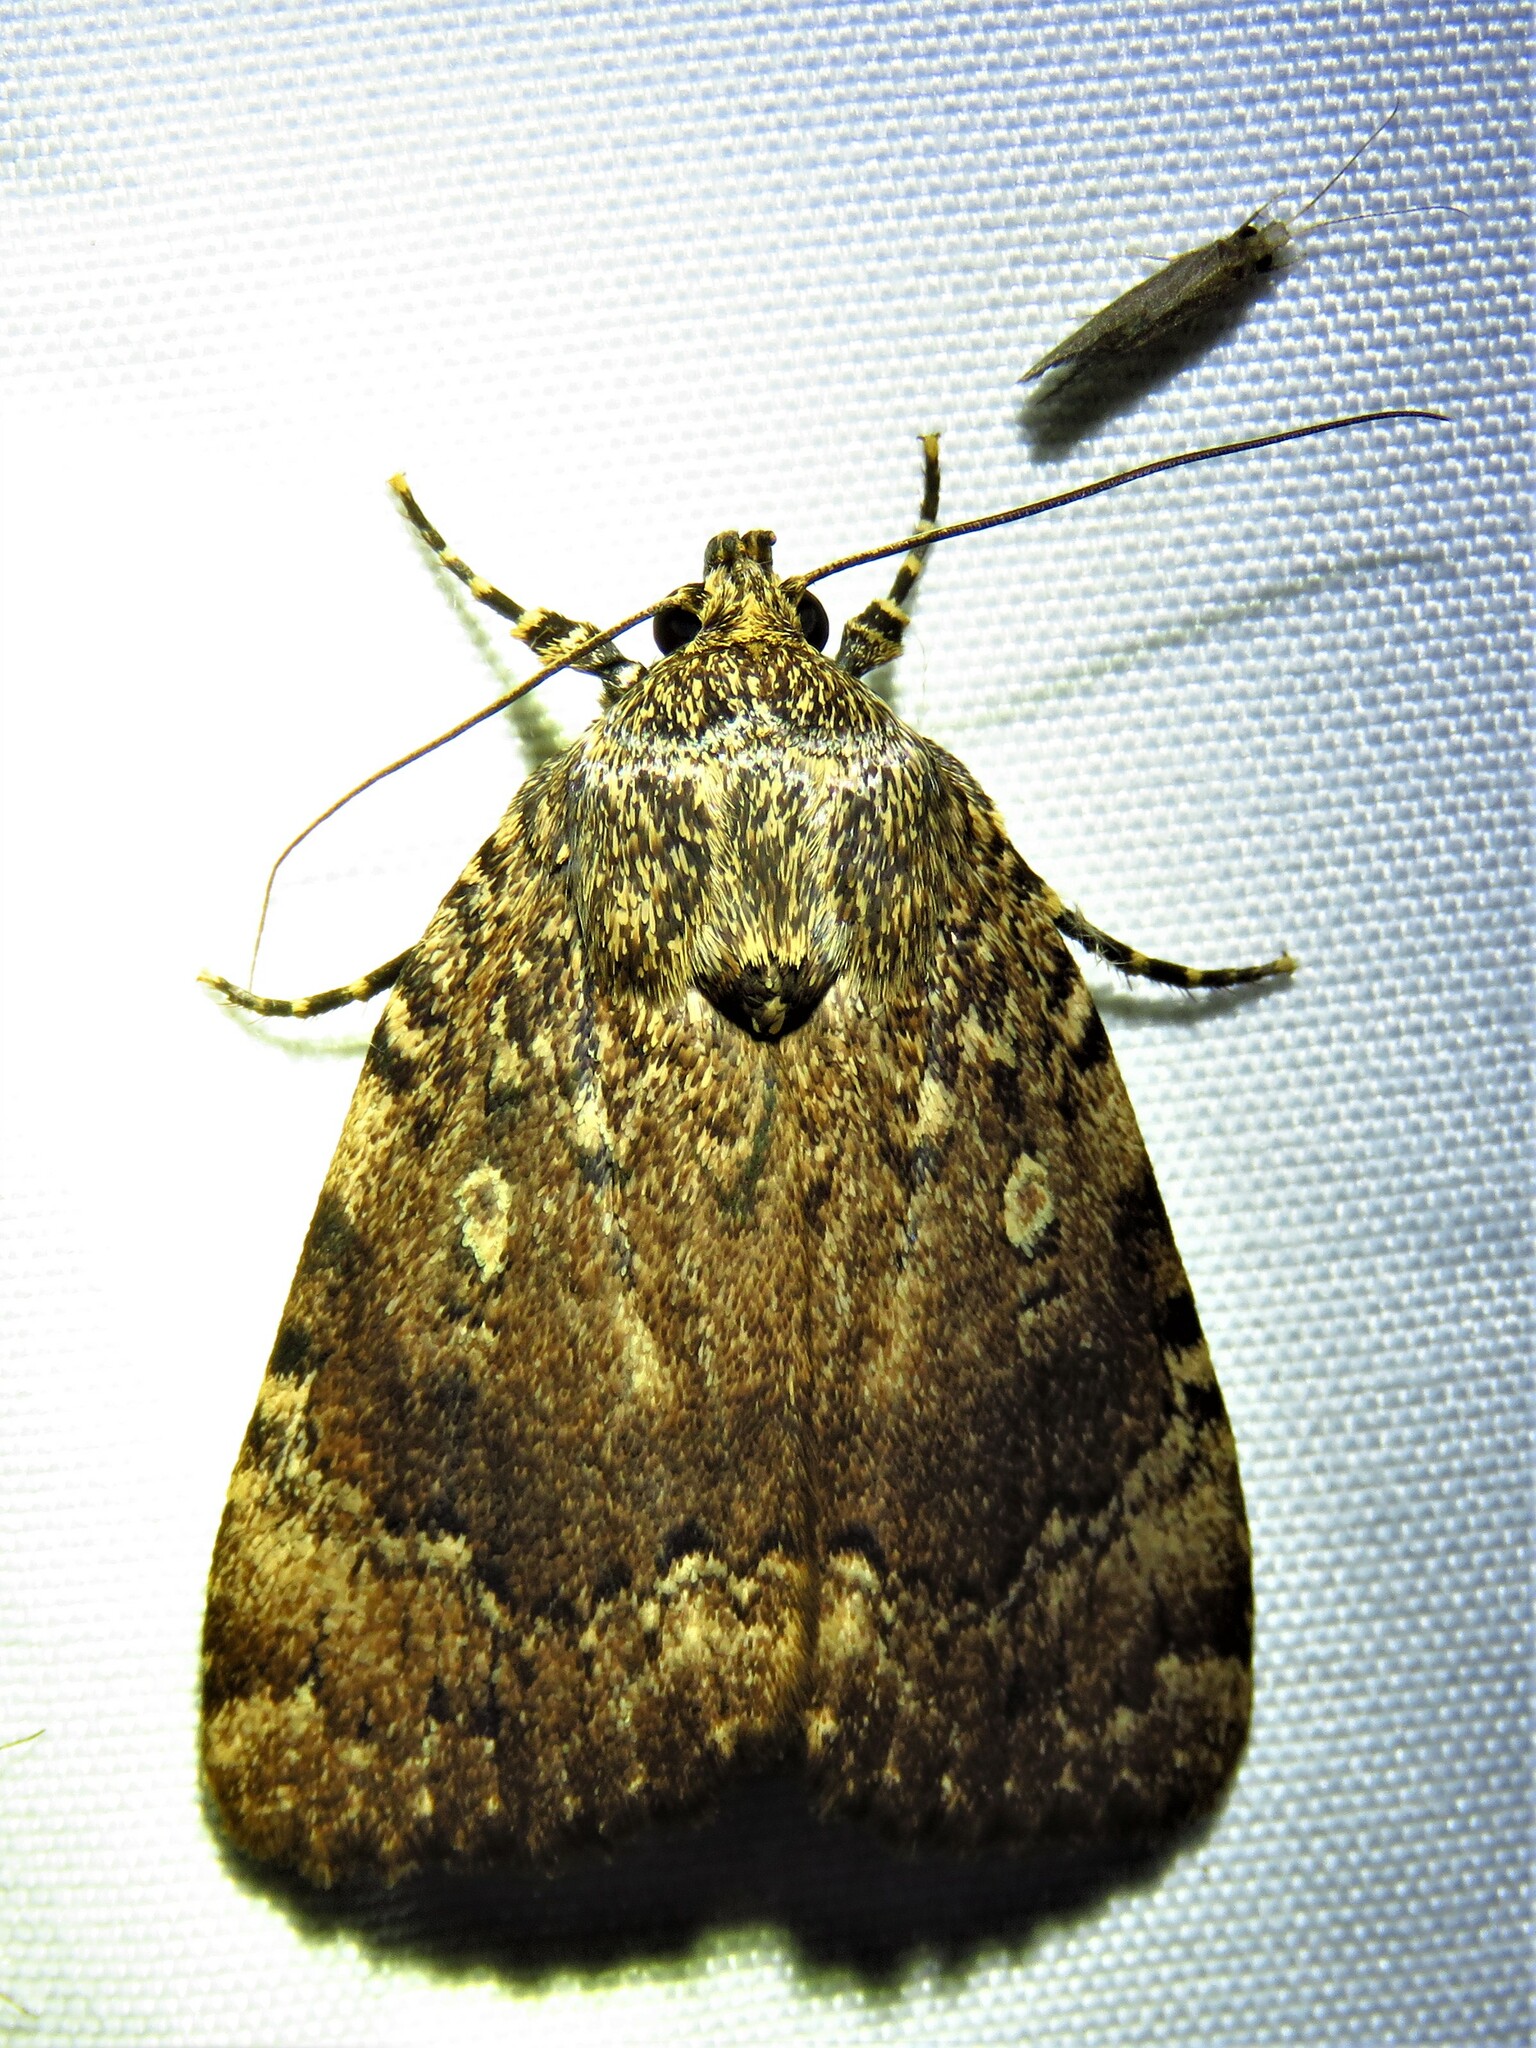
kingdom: Animalia
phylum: Arthropoda
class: Insecta
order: Lepidoptera
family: Noctuidae
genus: Amphipyra
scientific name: Amphipyra pyramidoides
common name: American copper underwing
